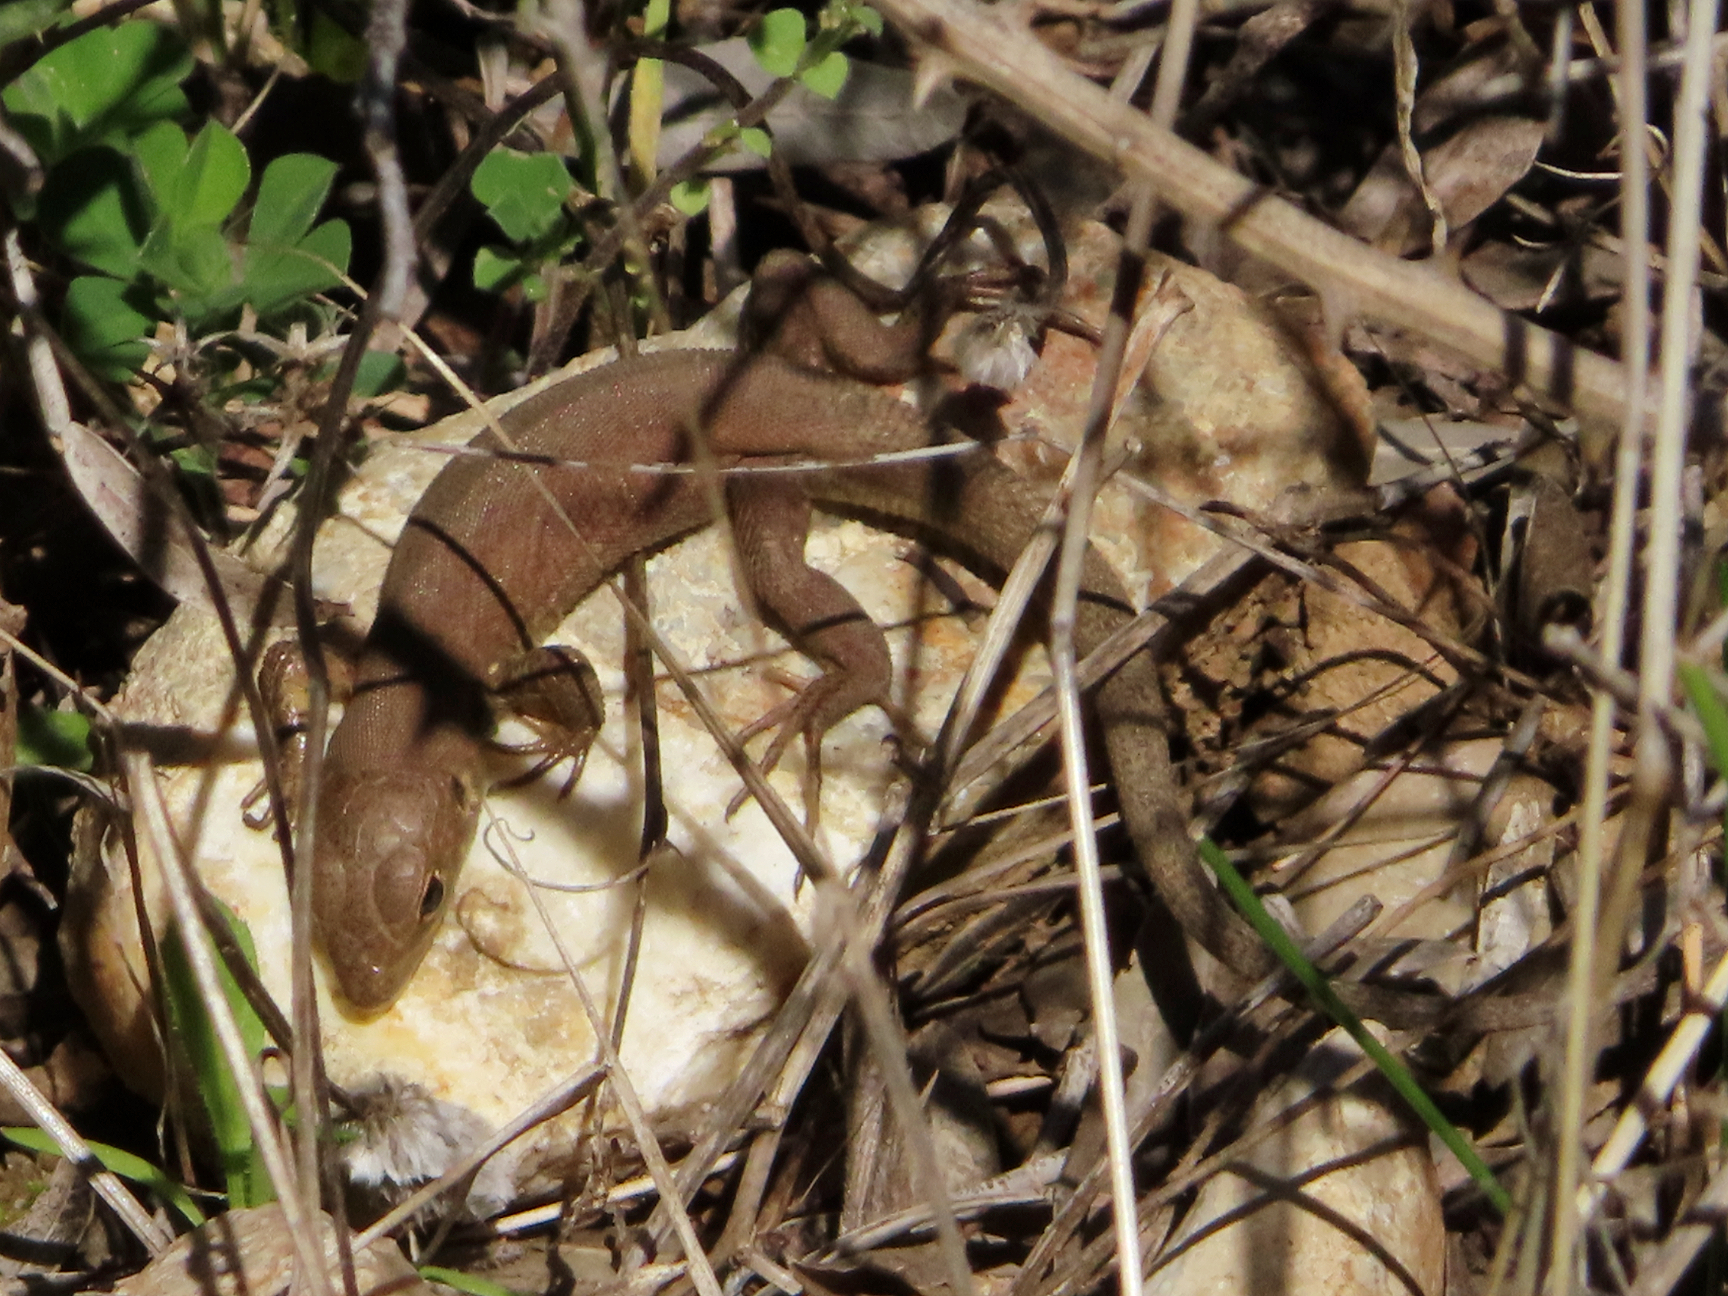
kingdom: Animalia
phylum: Chordata
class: Squamata
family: Lacertidae
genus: Lacerta
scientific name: Lacerta trilineata
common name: Balkan green lizard
